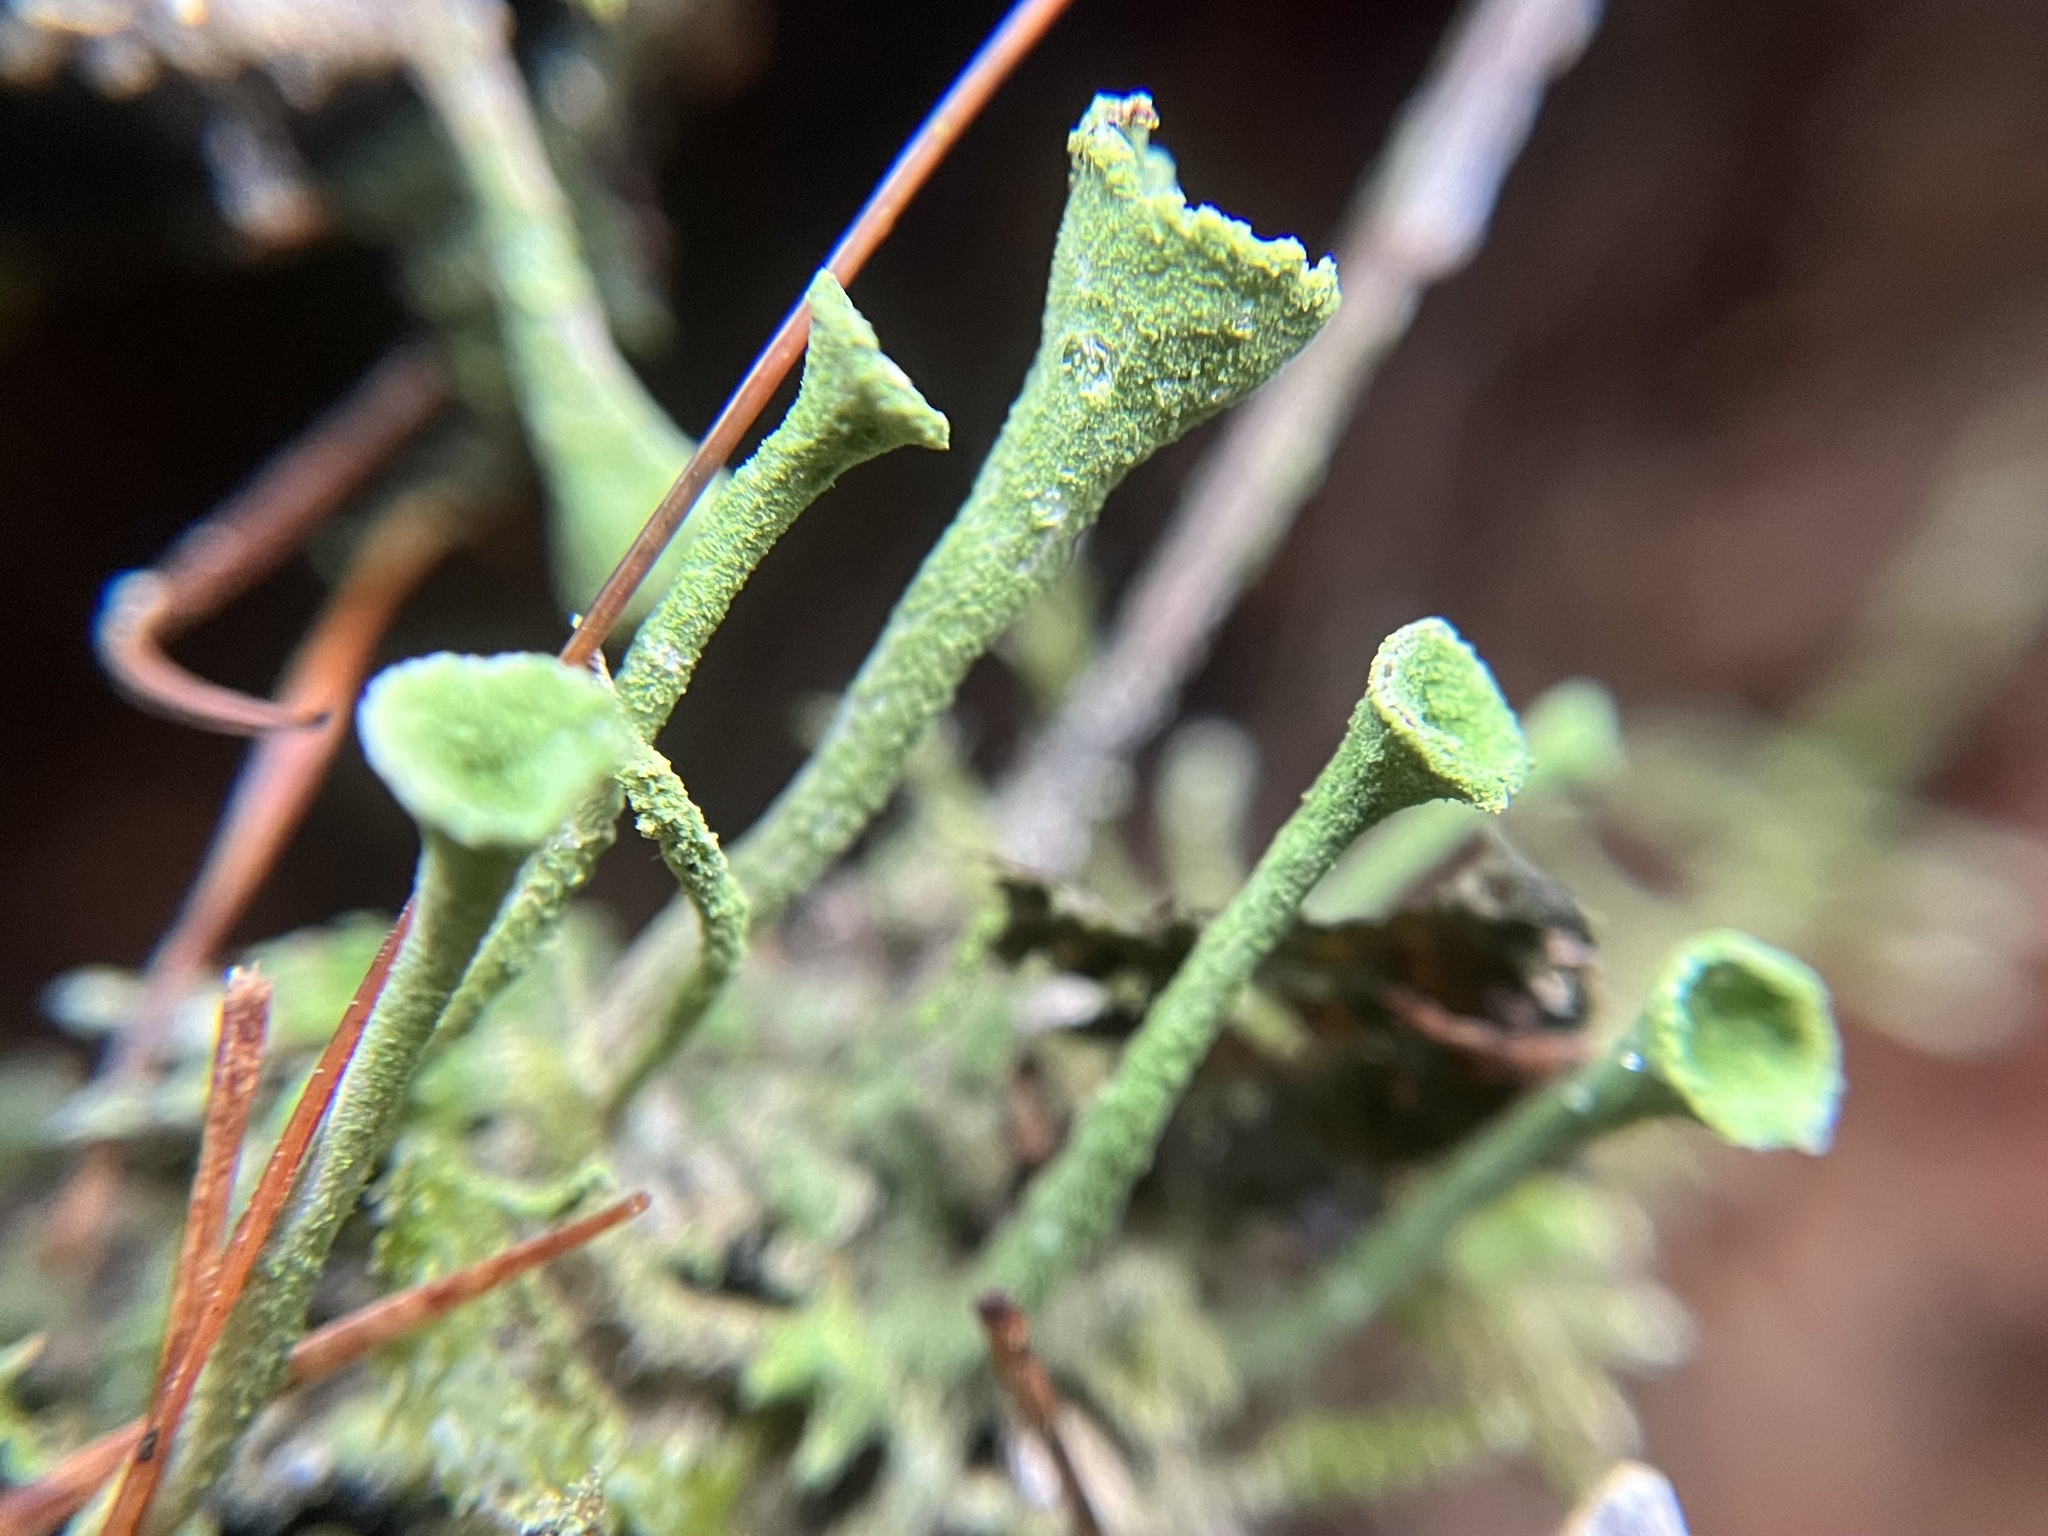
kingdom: Fungi
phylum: Ascomycota
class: Lecanoromycetes
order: Lecanorales
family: Cladoniaceae
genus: Cladonia
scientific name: Cladonia fimbriata
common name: Powdered trumpet lichen
